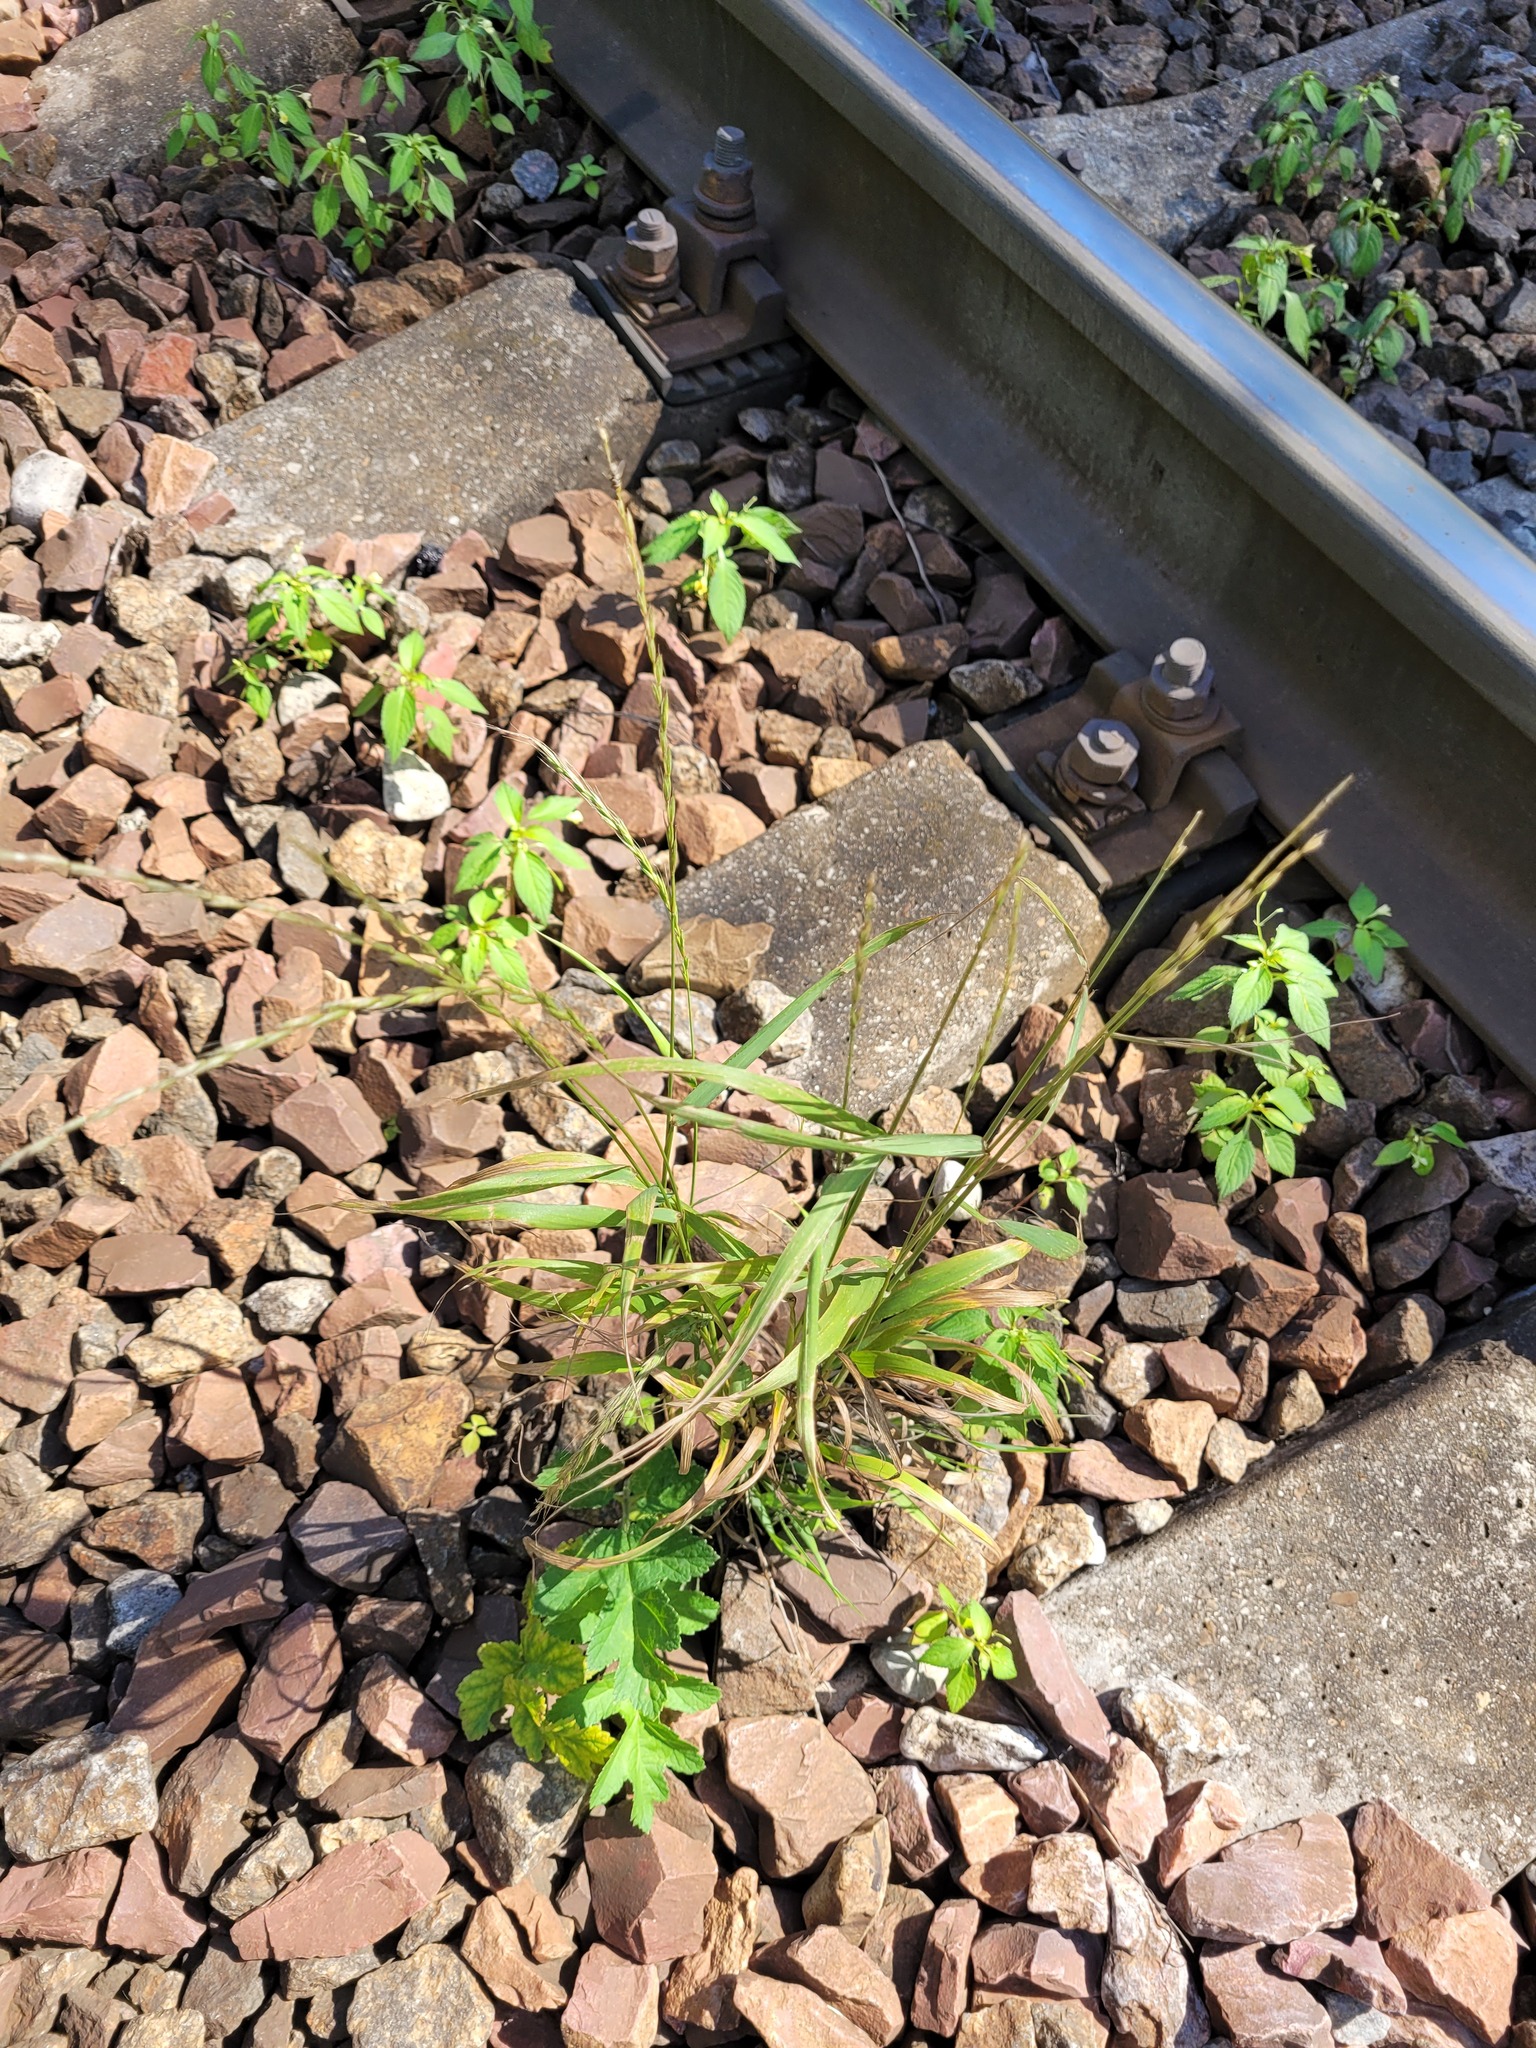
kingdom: Plantae
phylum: Tracheophyta
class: Liliopsida
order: Poales
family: Poaceae
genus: Elymus
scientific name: Elymus caninus
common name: Bearded couch
